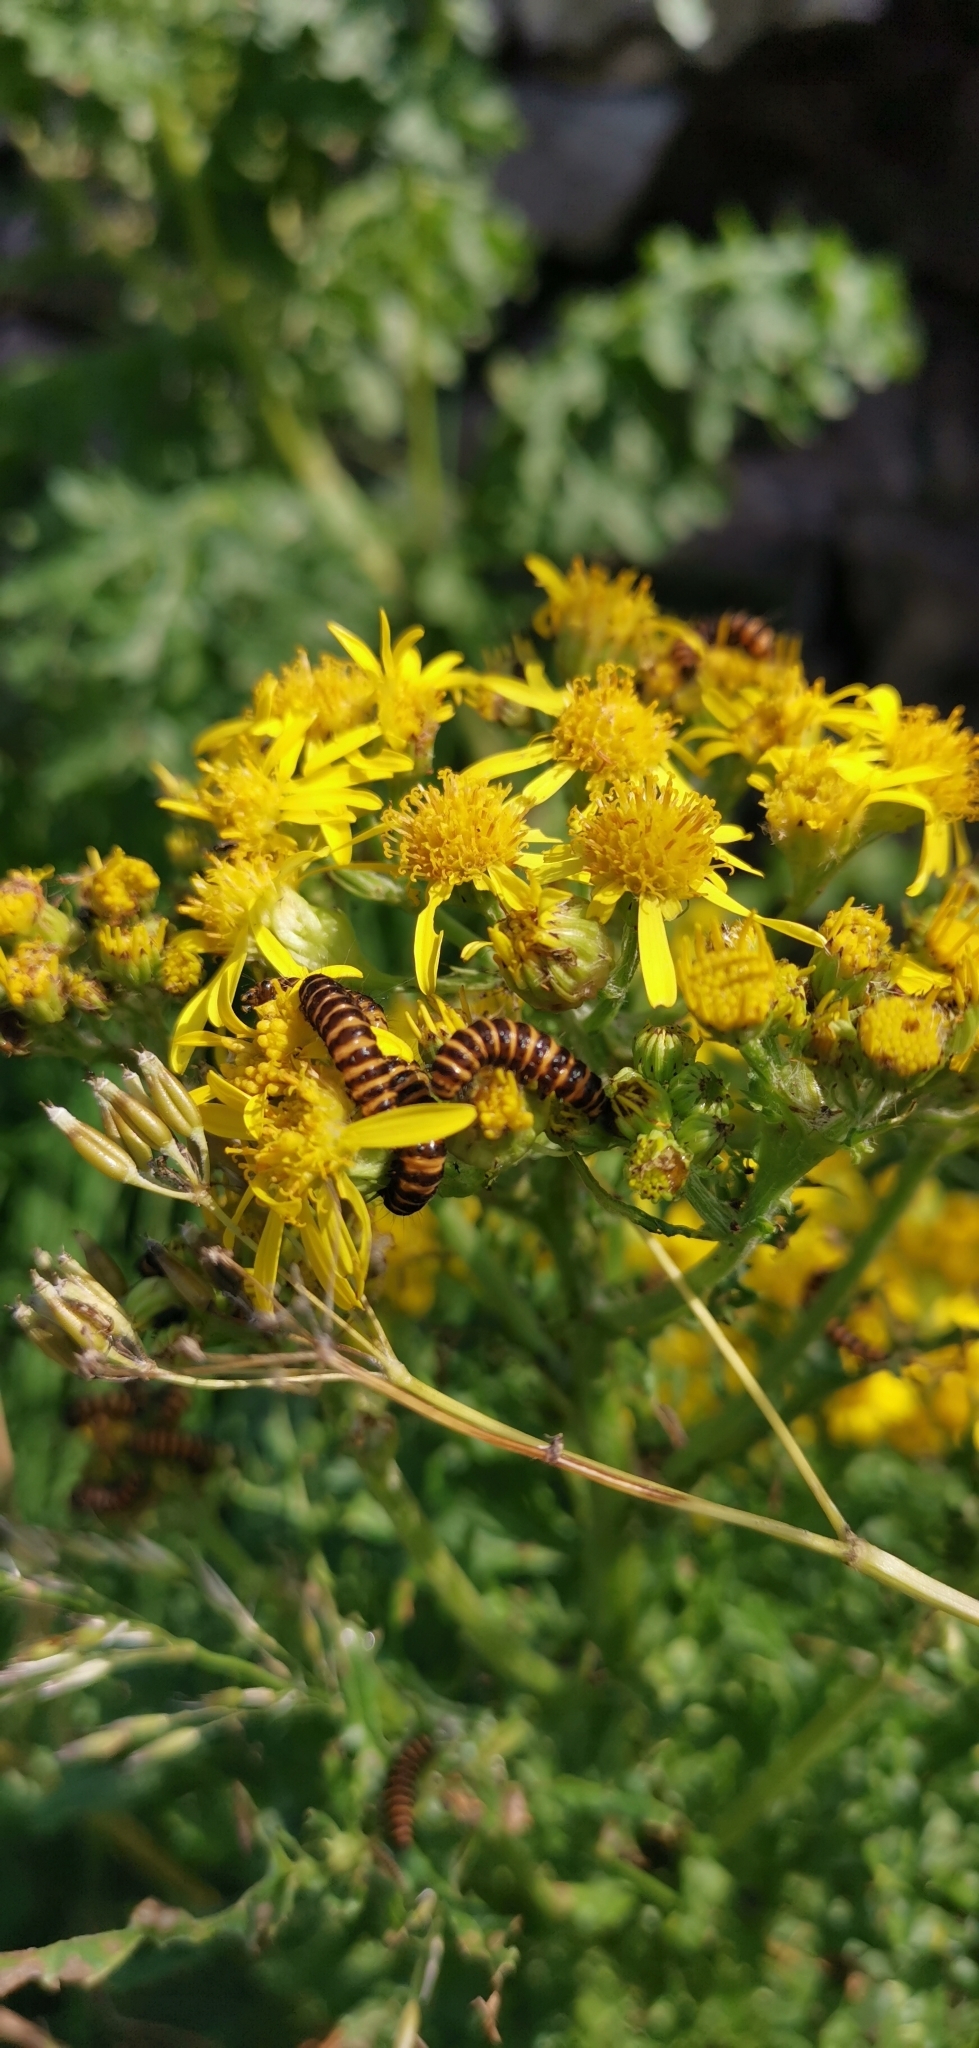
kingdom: Animalia
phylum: Arthropoda
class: Insecta
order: Lepidoptera
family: Erebidae
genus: Tyria
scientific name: Tyria jacobaeae
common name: Cinnabar
